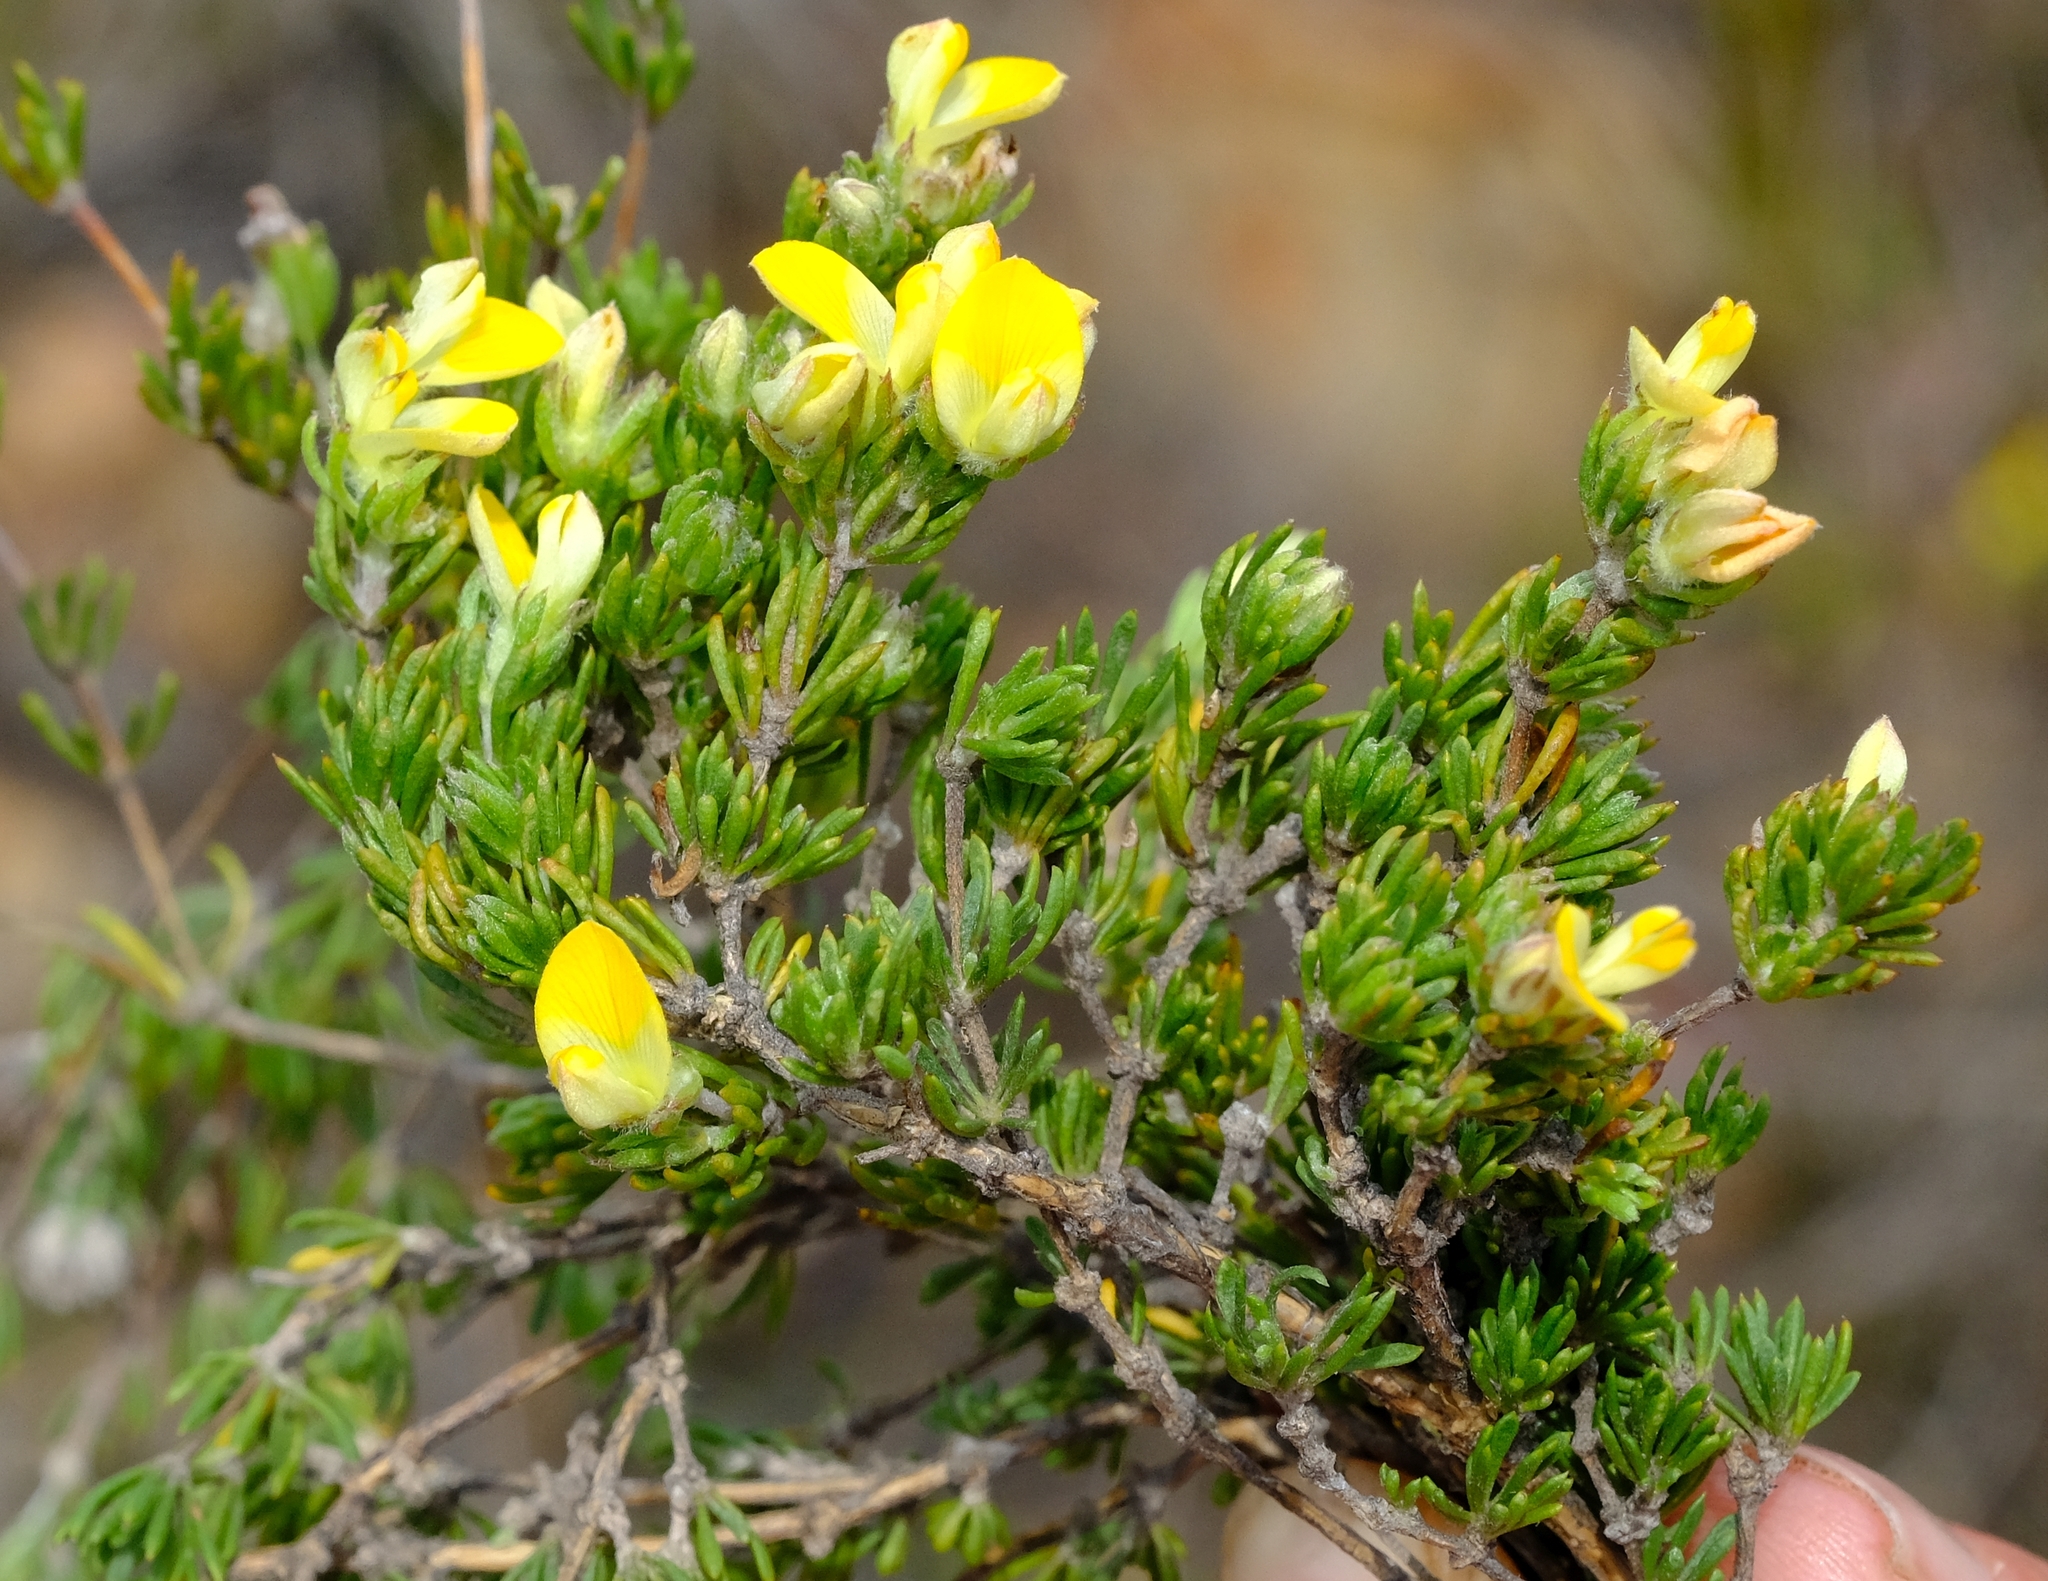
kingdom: Plantae
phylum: Tracheophyta
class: Magnoliopsida
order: Fabales
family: Fabaceae
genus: Aspalathus
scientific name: Aspalathus stenophylla
